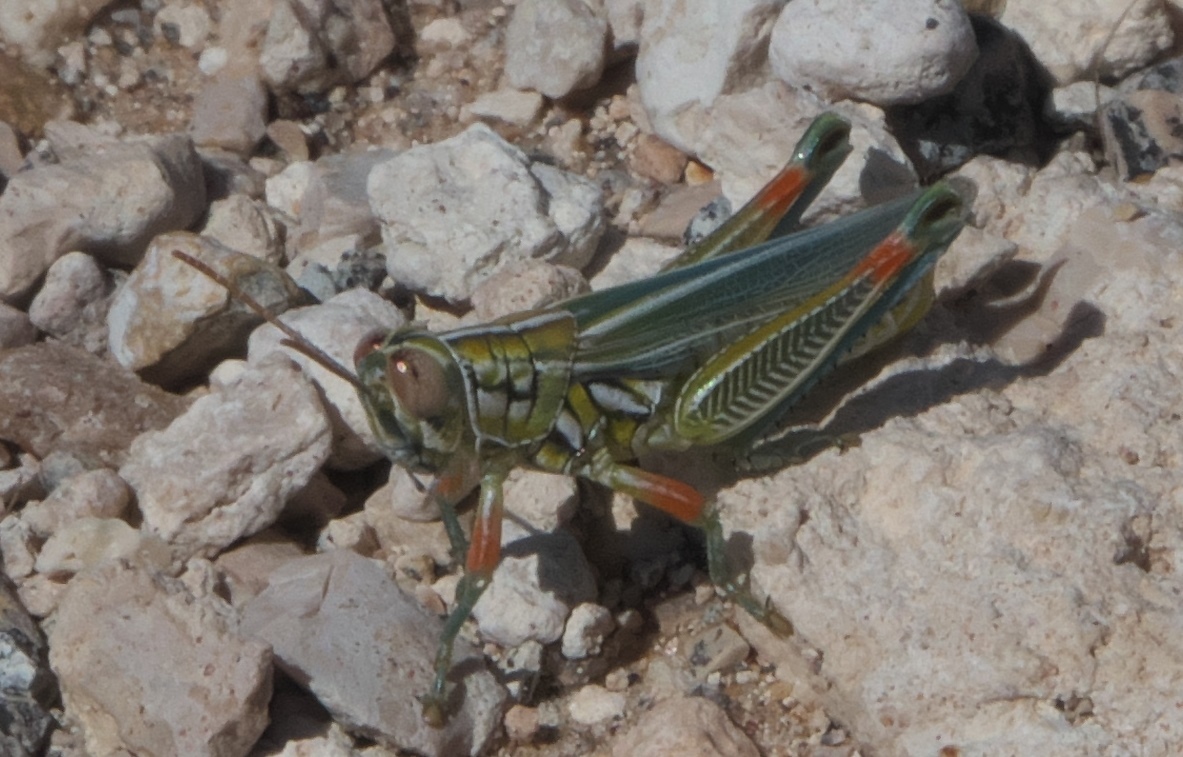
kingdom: Animalia
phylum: Arthropoda
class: Insecta
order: Orthoptera
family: Acrididae
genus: Hesperotettix
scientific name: Hesperotettix viridis
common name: Meadow purple-striped grasshopper
